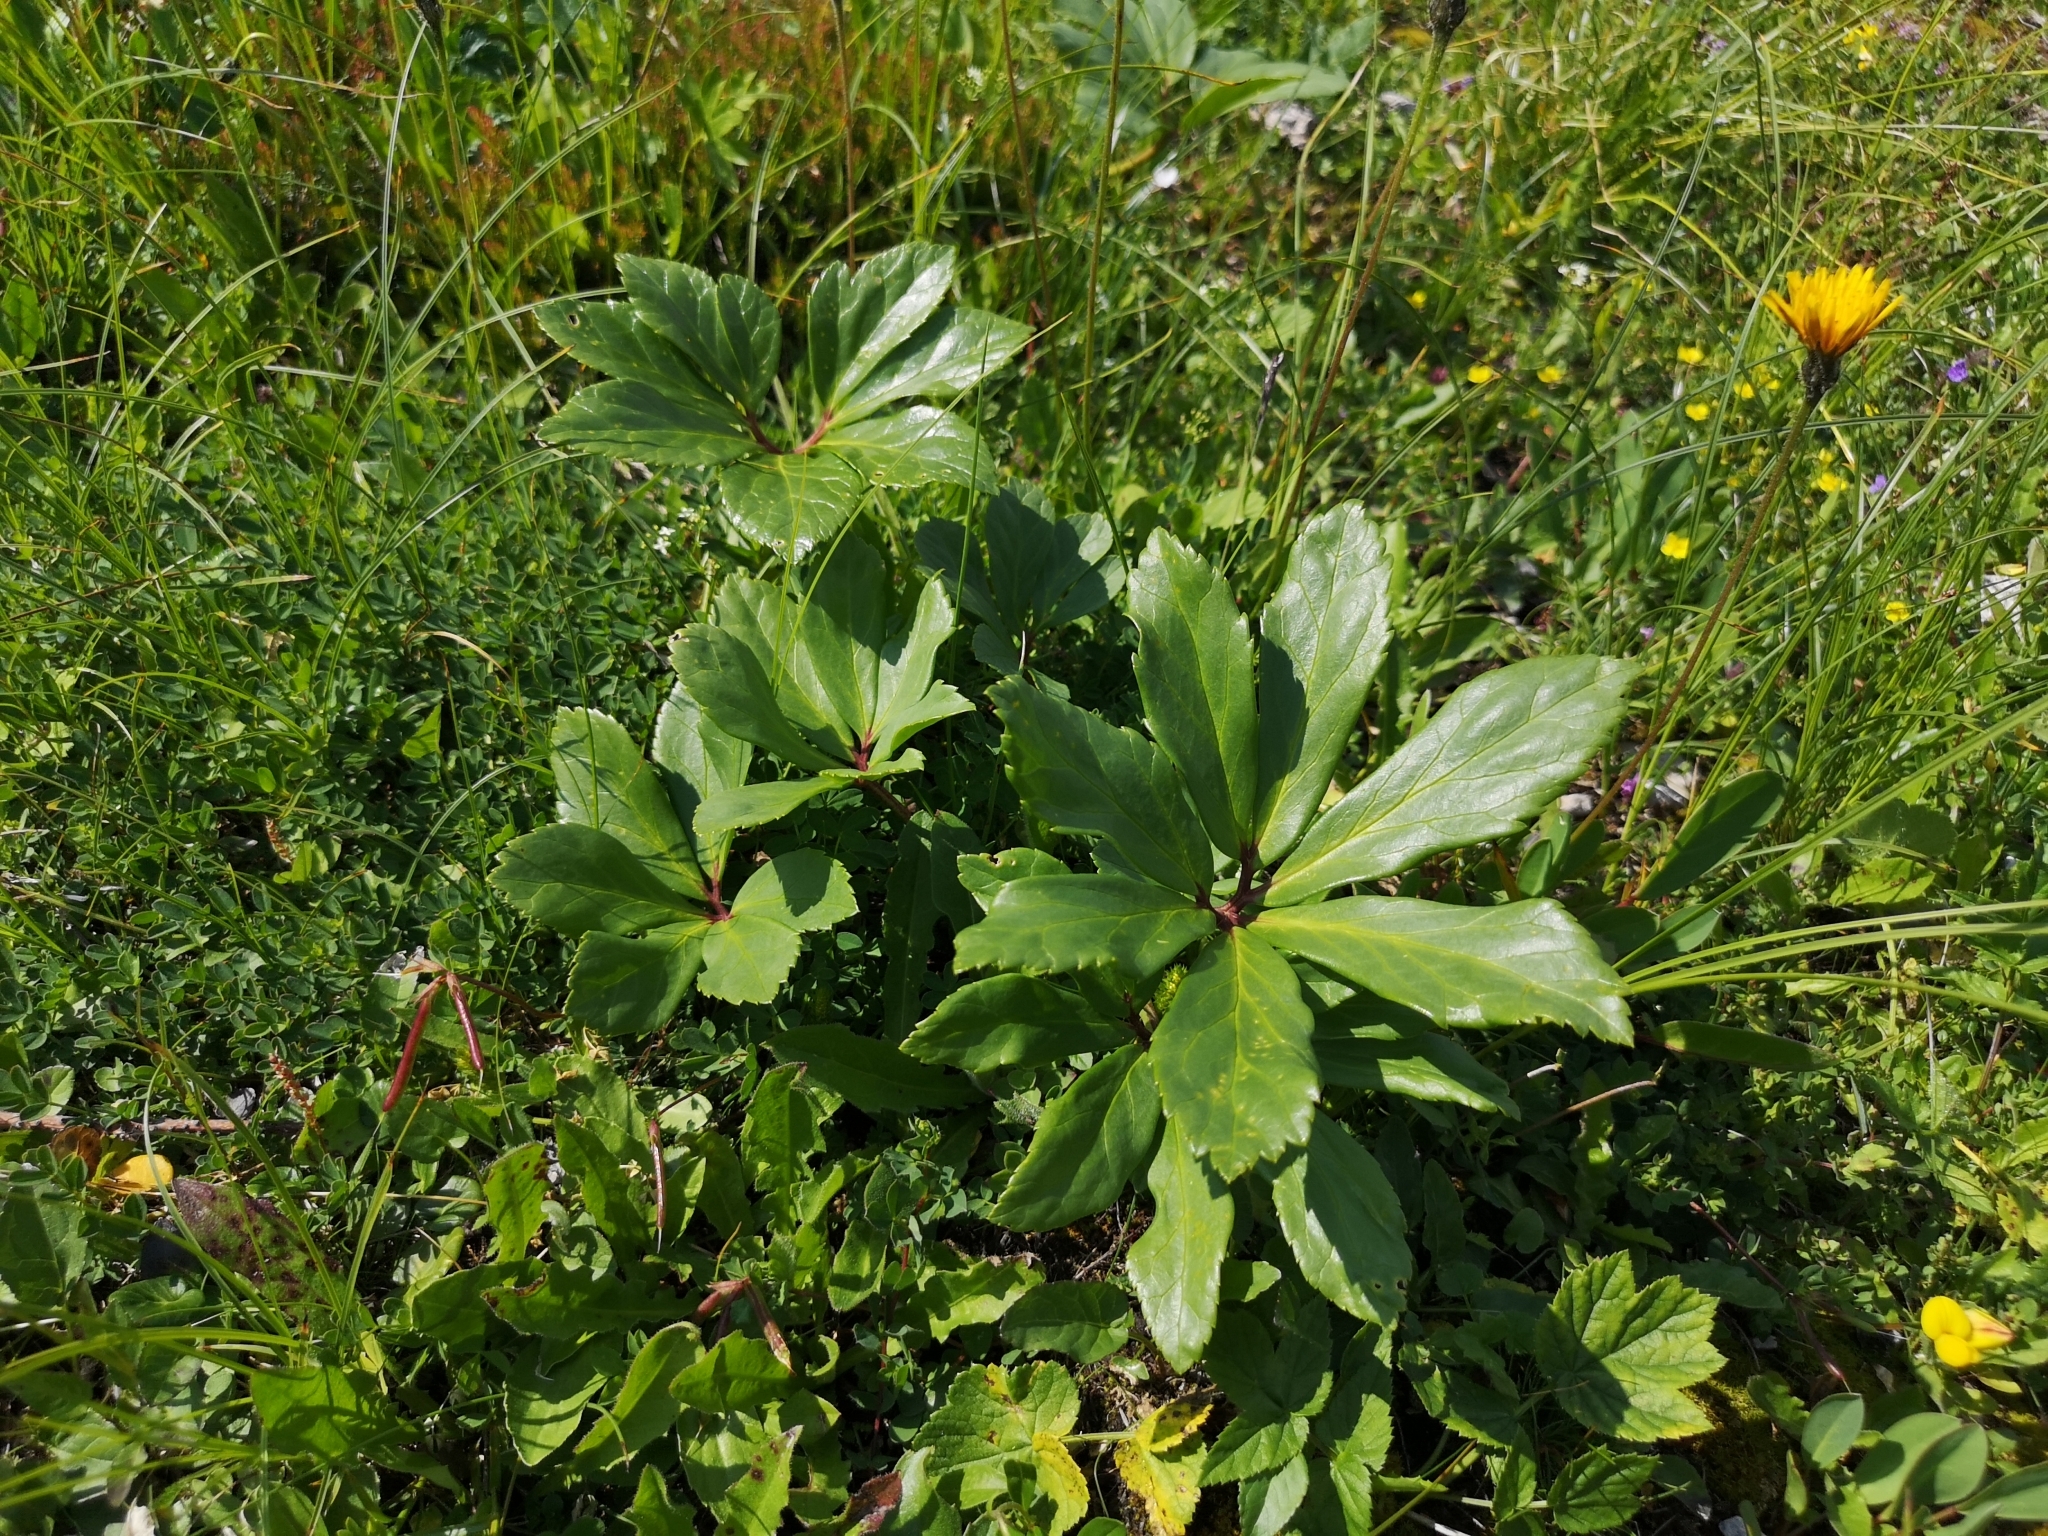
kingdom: Plantae
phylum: Tracheophyta
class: Magnoliopsida
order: Ranunculales
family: Ranunculaceae
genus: Helleborus
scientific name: Helleborus niger
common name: Black hellebore
